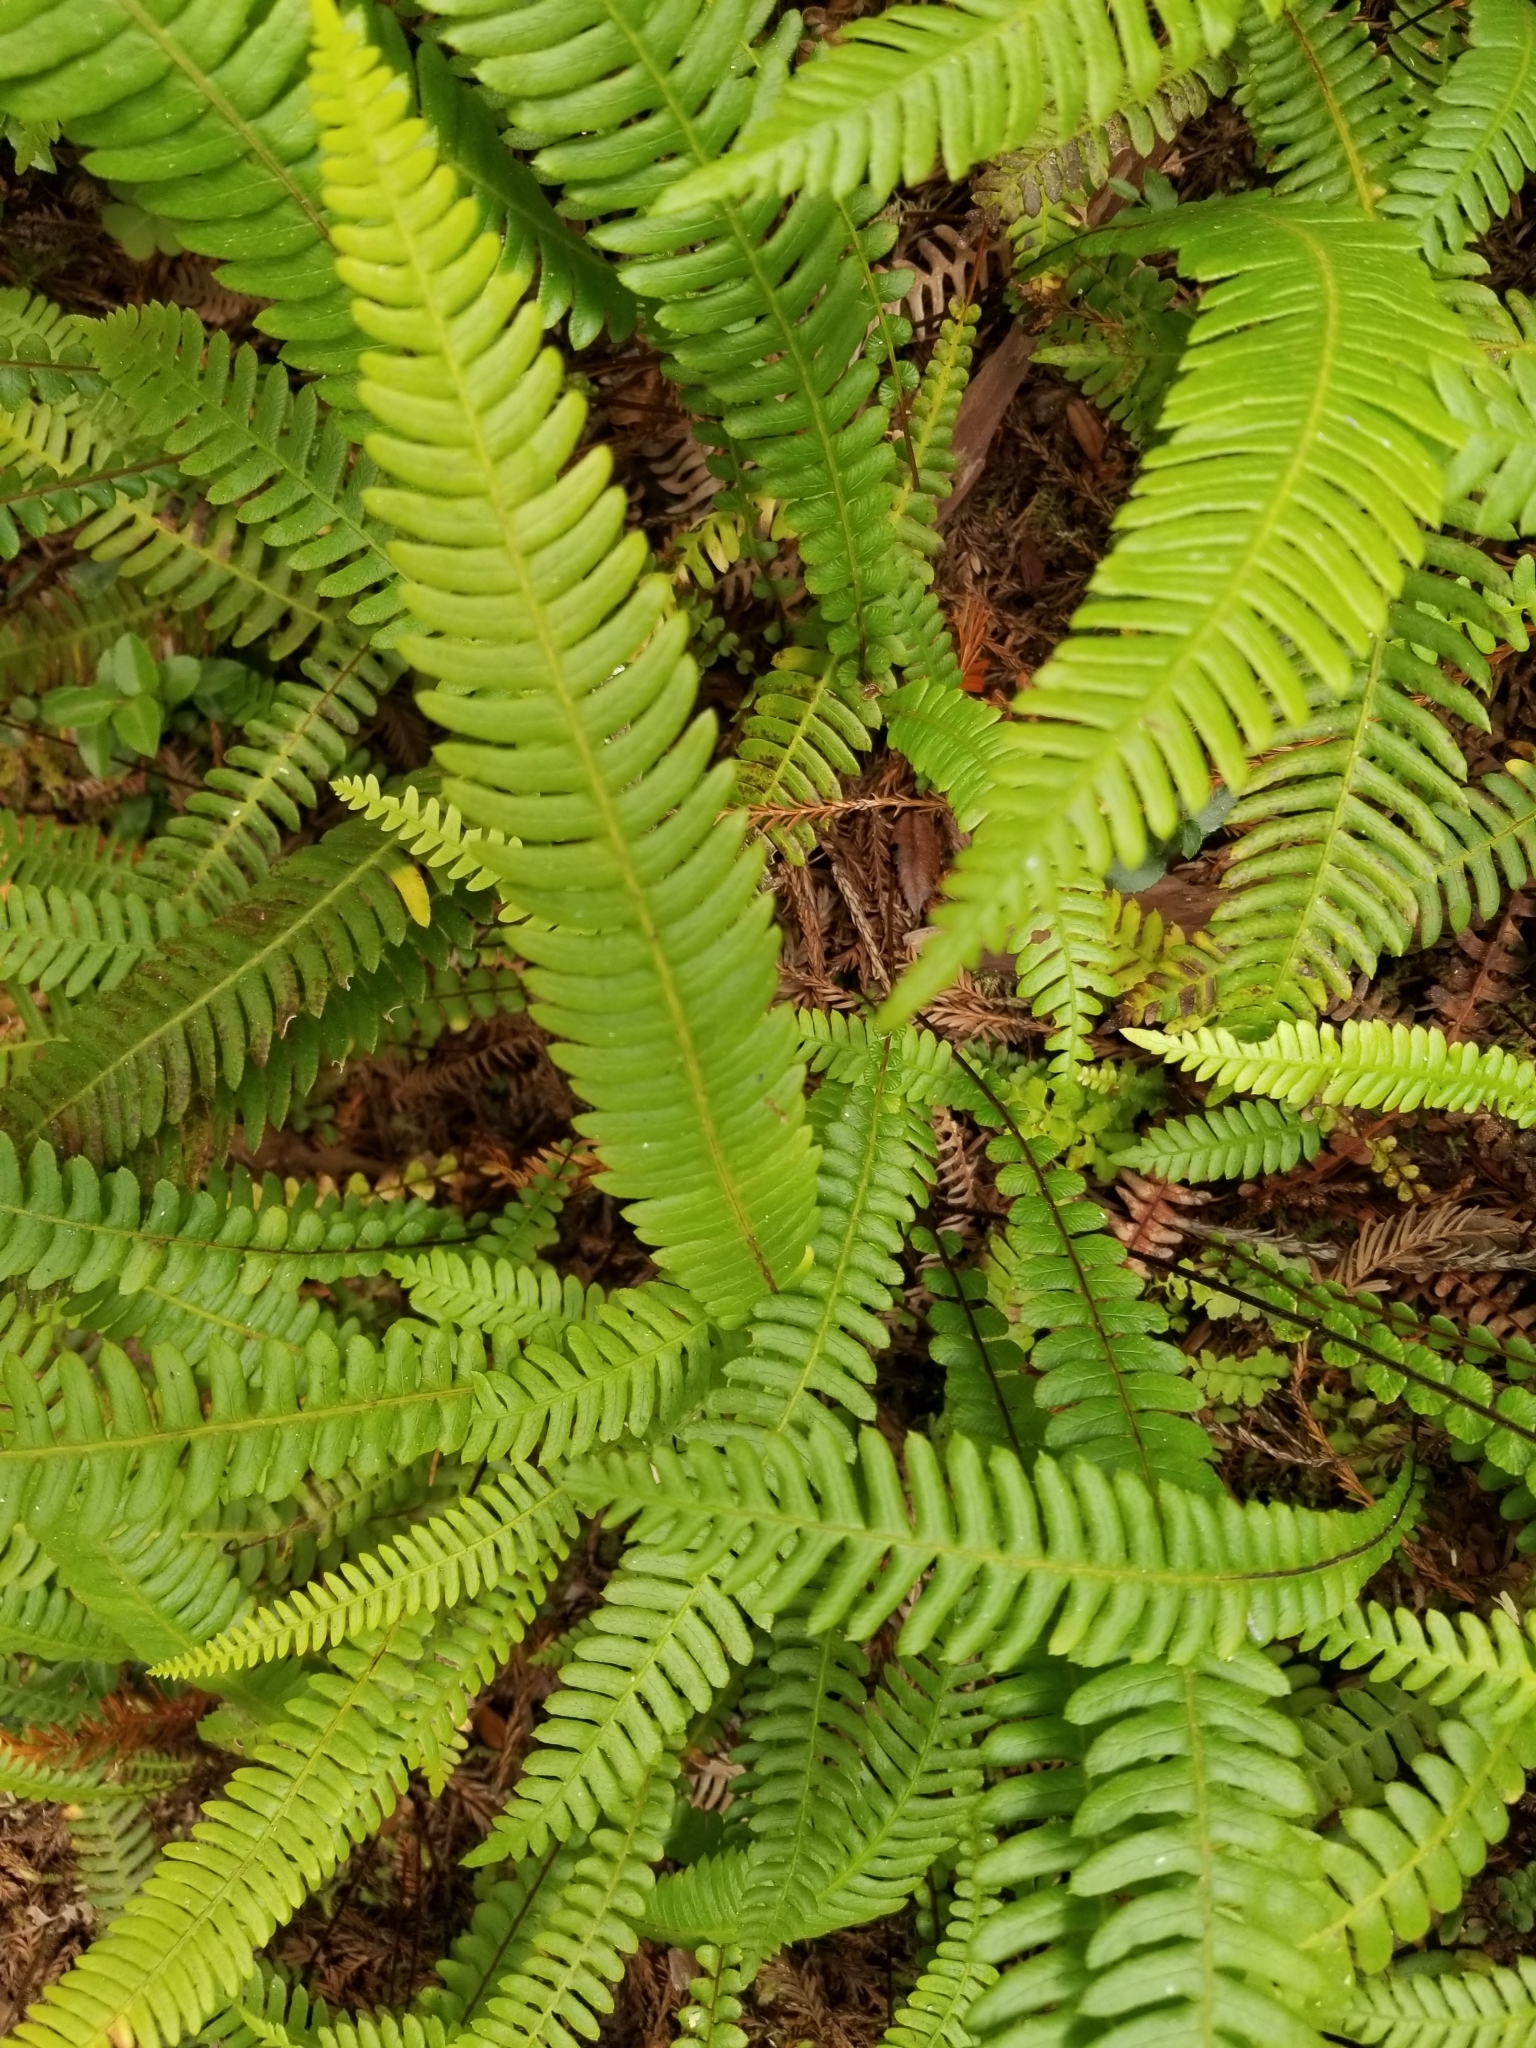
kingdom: Plantae
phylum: Tracheophyta
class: Polypodiopsida
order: Polypodiales
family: Blechnaceae
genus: Struthiopteris
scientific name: Struthiopteris spicant
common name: Deer fern
